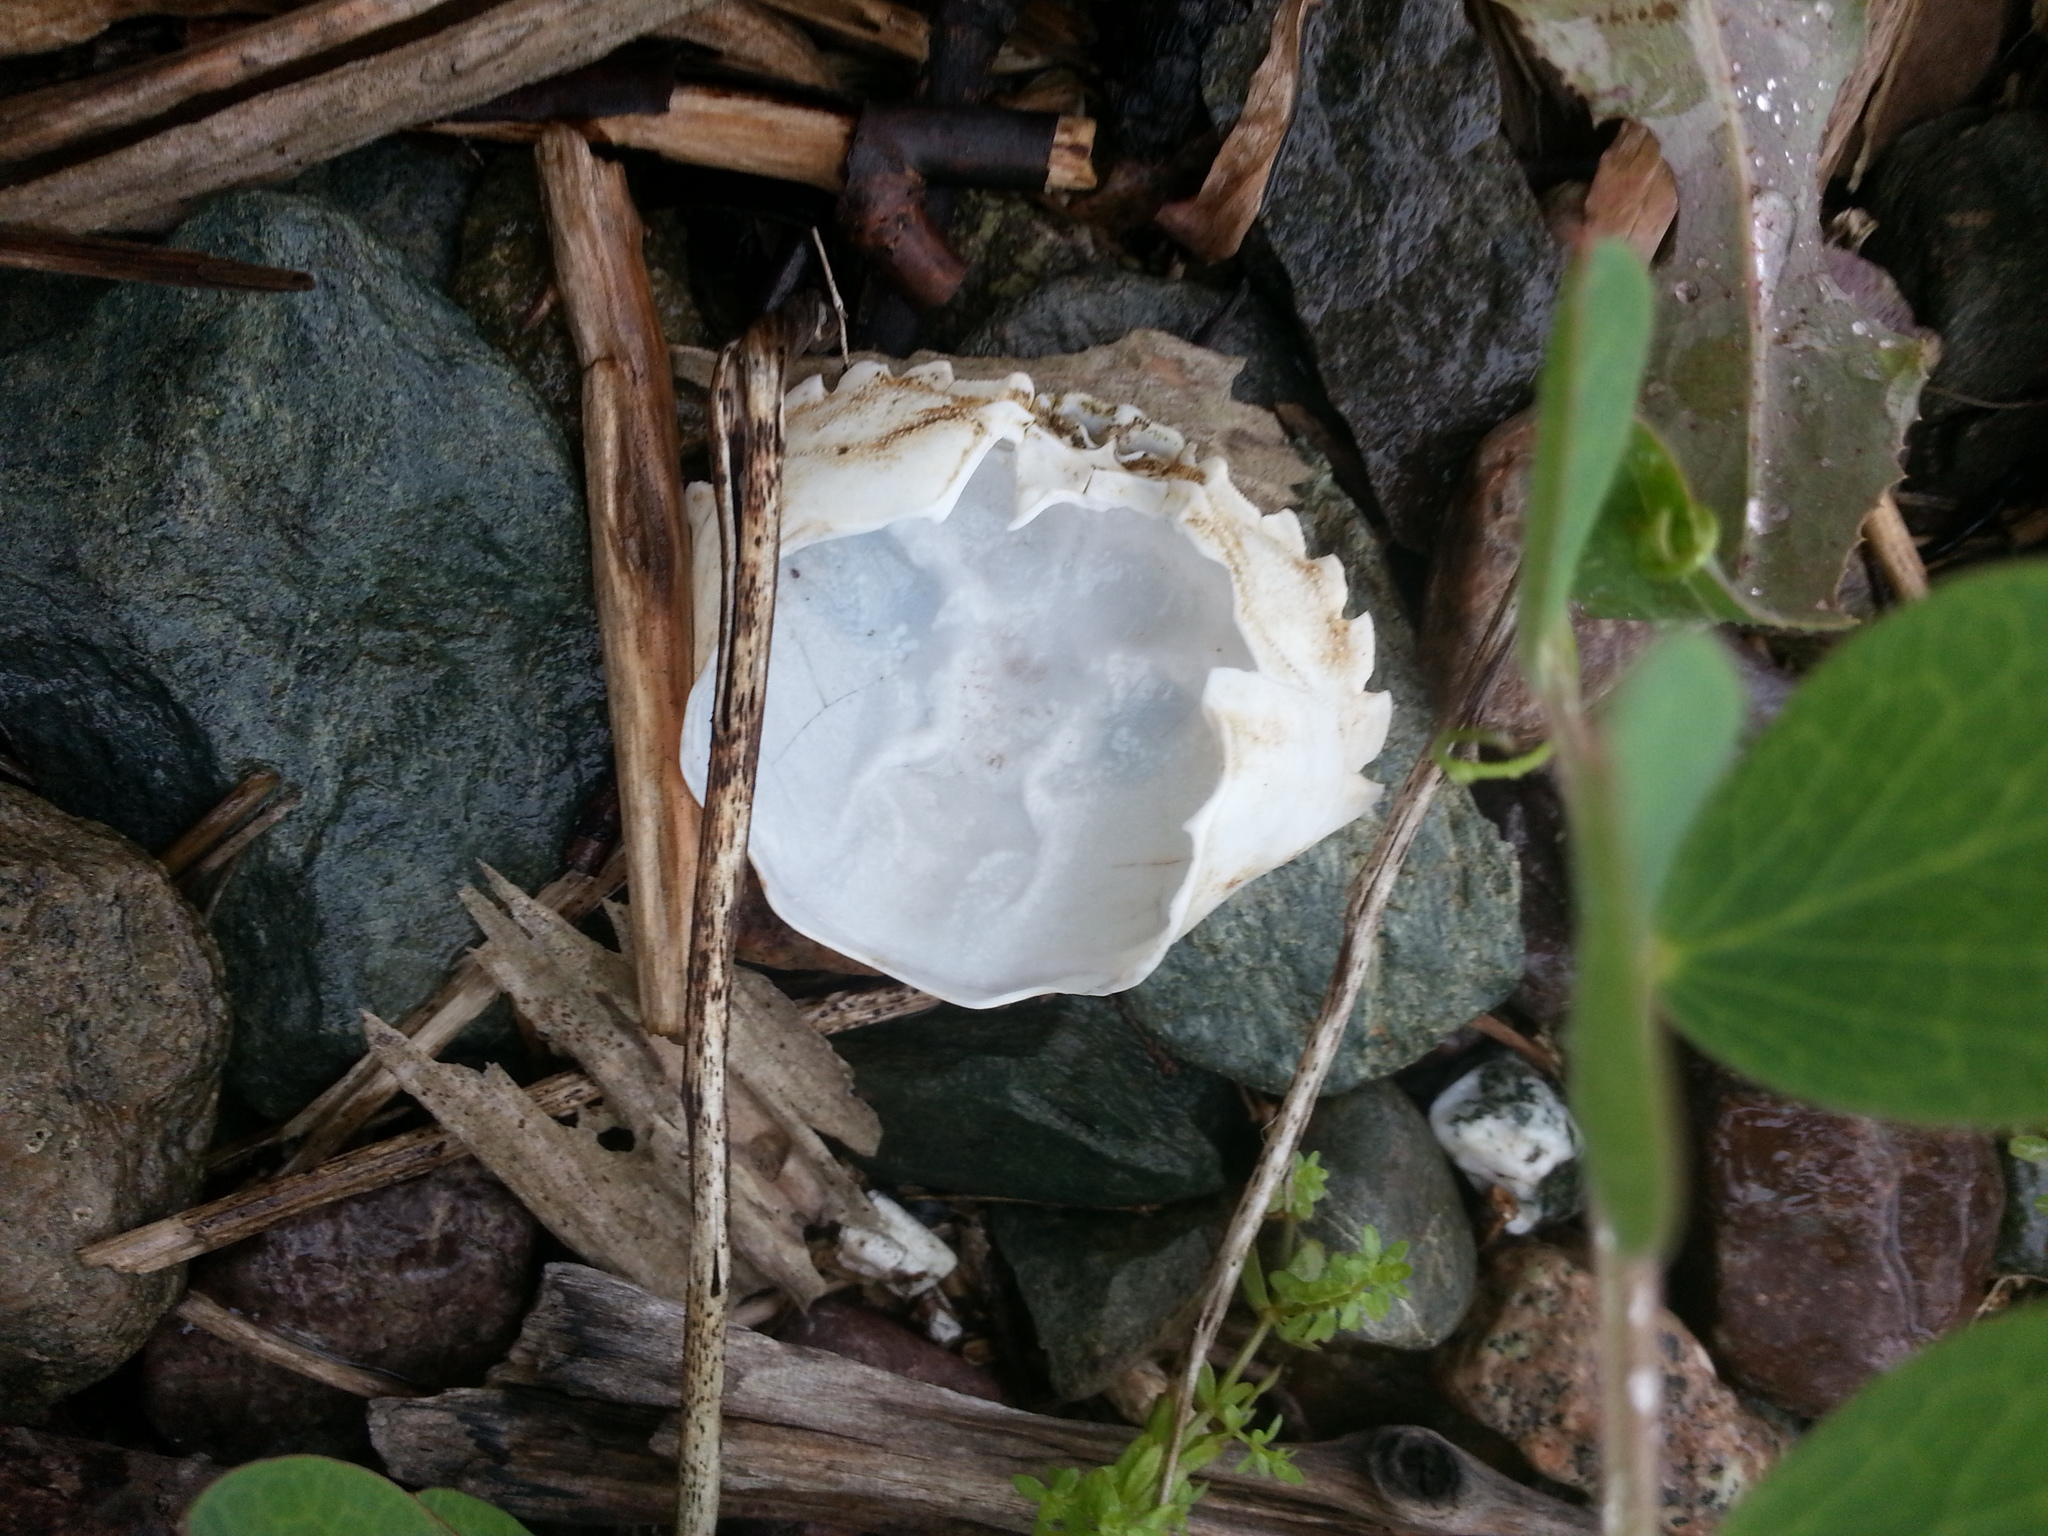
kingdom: Animalia
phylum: Arthropoda
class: Malacostraca
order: Decapoda
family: Carcinidae
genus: Carcinus
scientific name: Carcinus maenas
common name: European green crab
